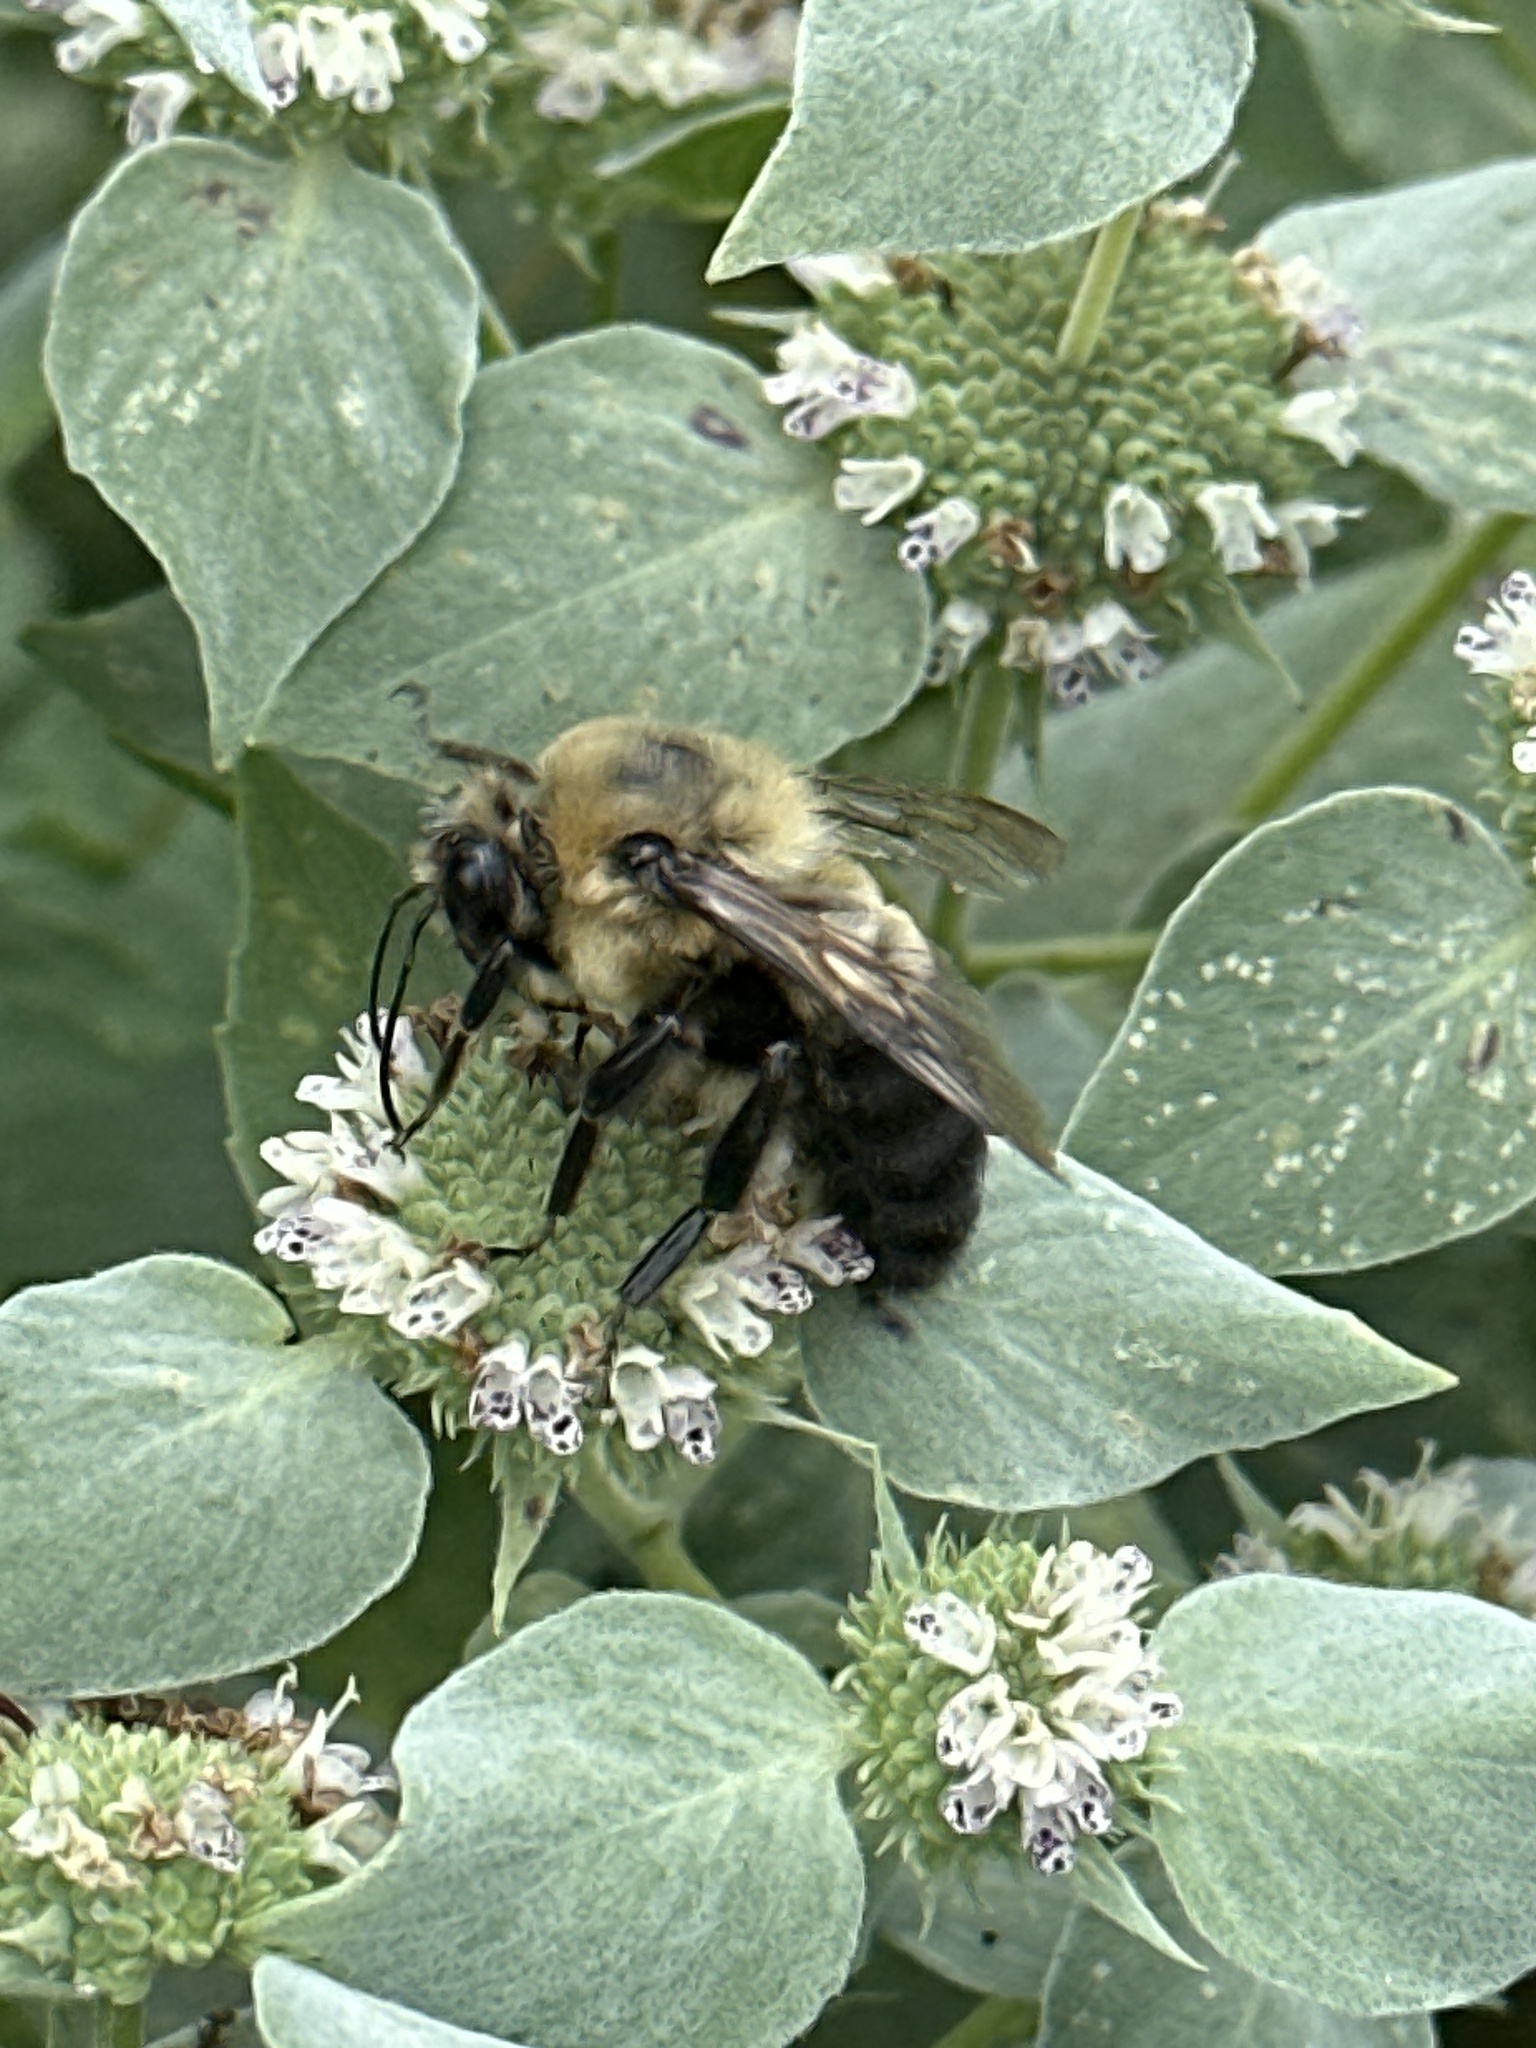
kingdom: Animalia
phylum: Arthropoda
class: Insecta
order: Hymenoptera
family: Apidae
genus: Bombus
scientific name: Bombus griseocollis
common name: Brown-belted bumble bee
